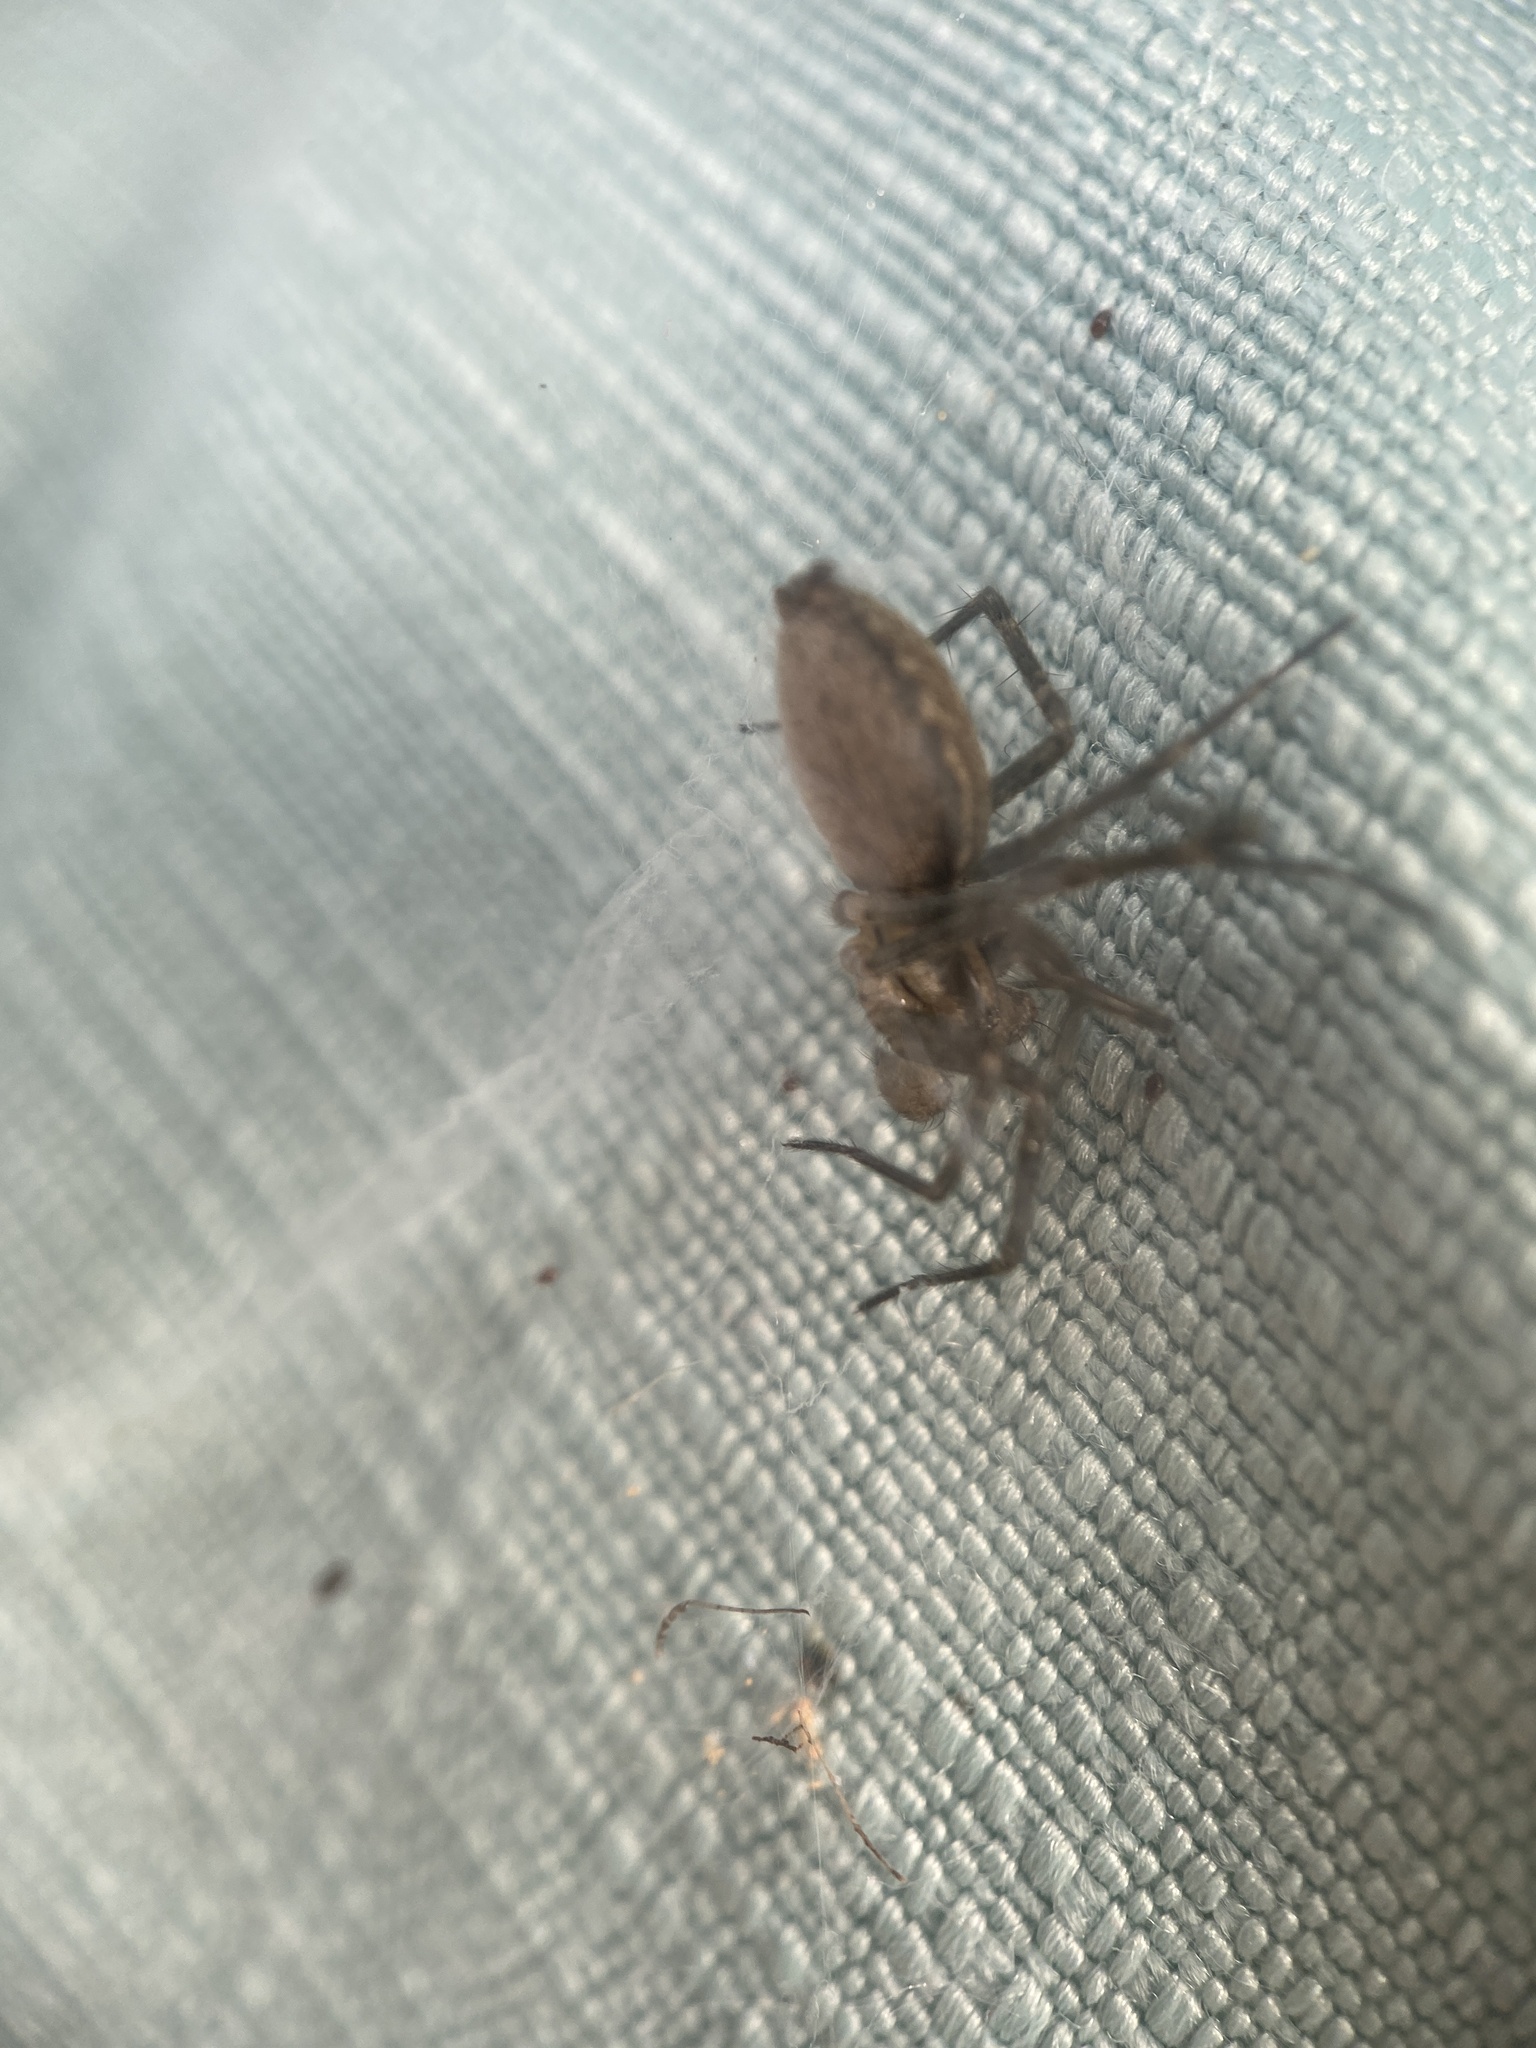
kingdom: Animalia
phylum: Arthropoda
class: Arachnida
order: Araneae
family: Agelenidae
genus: Agelenopsis
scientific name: Agelenopsis
